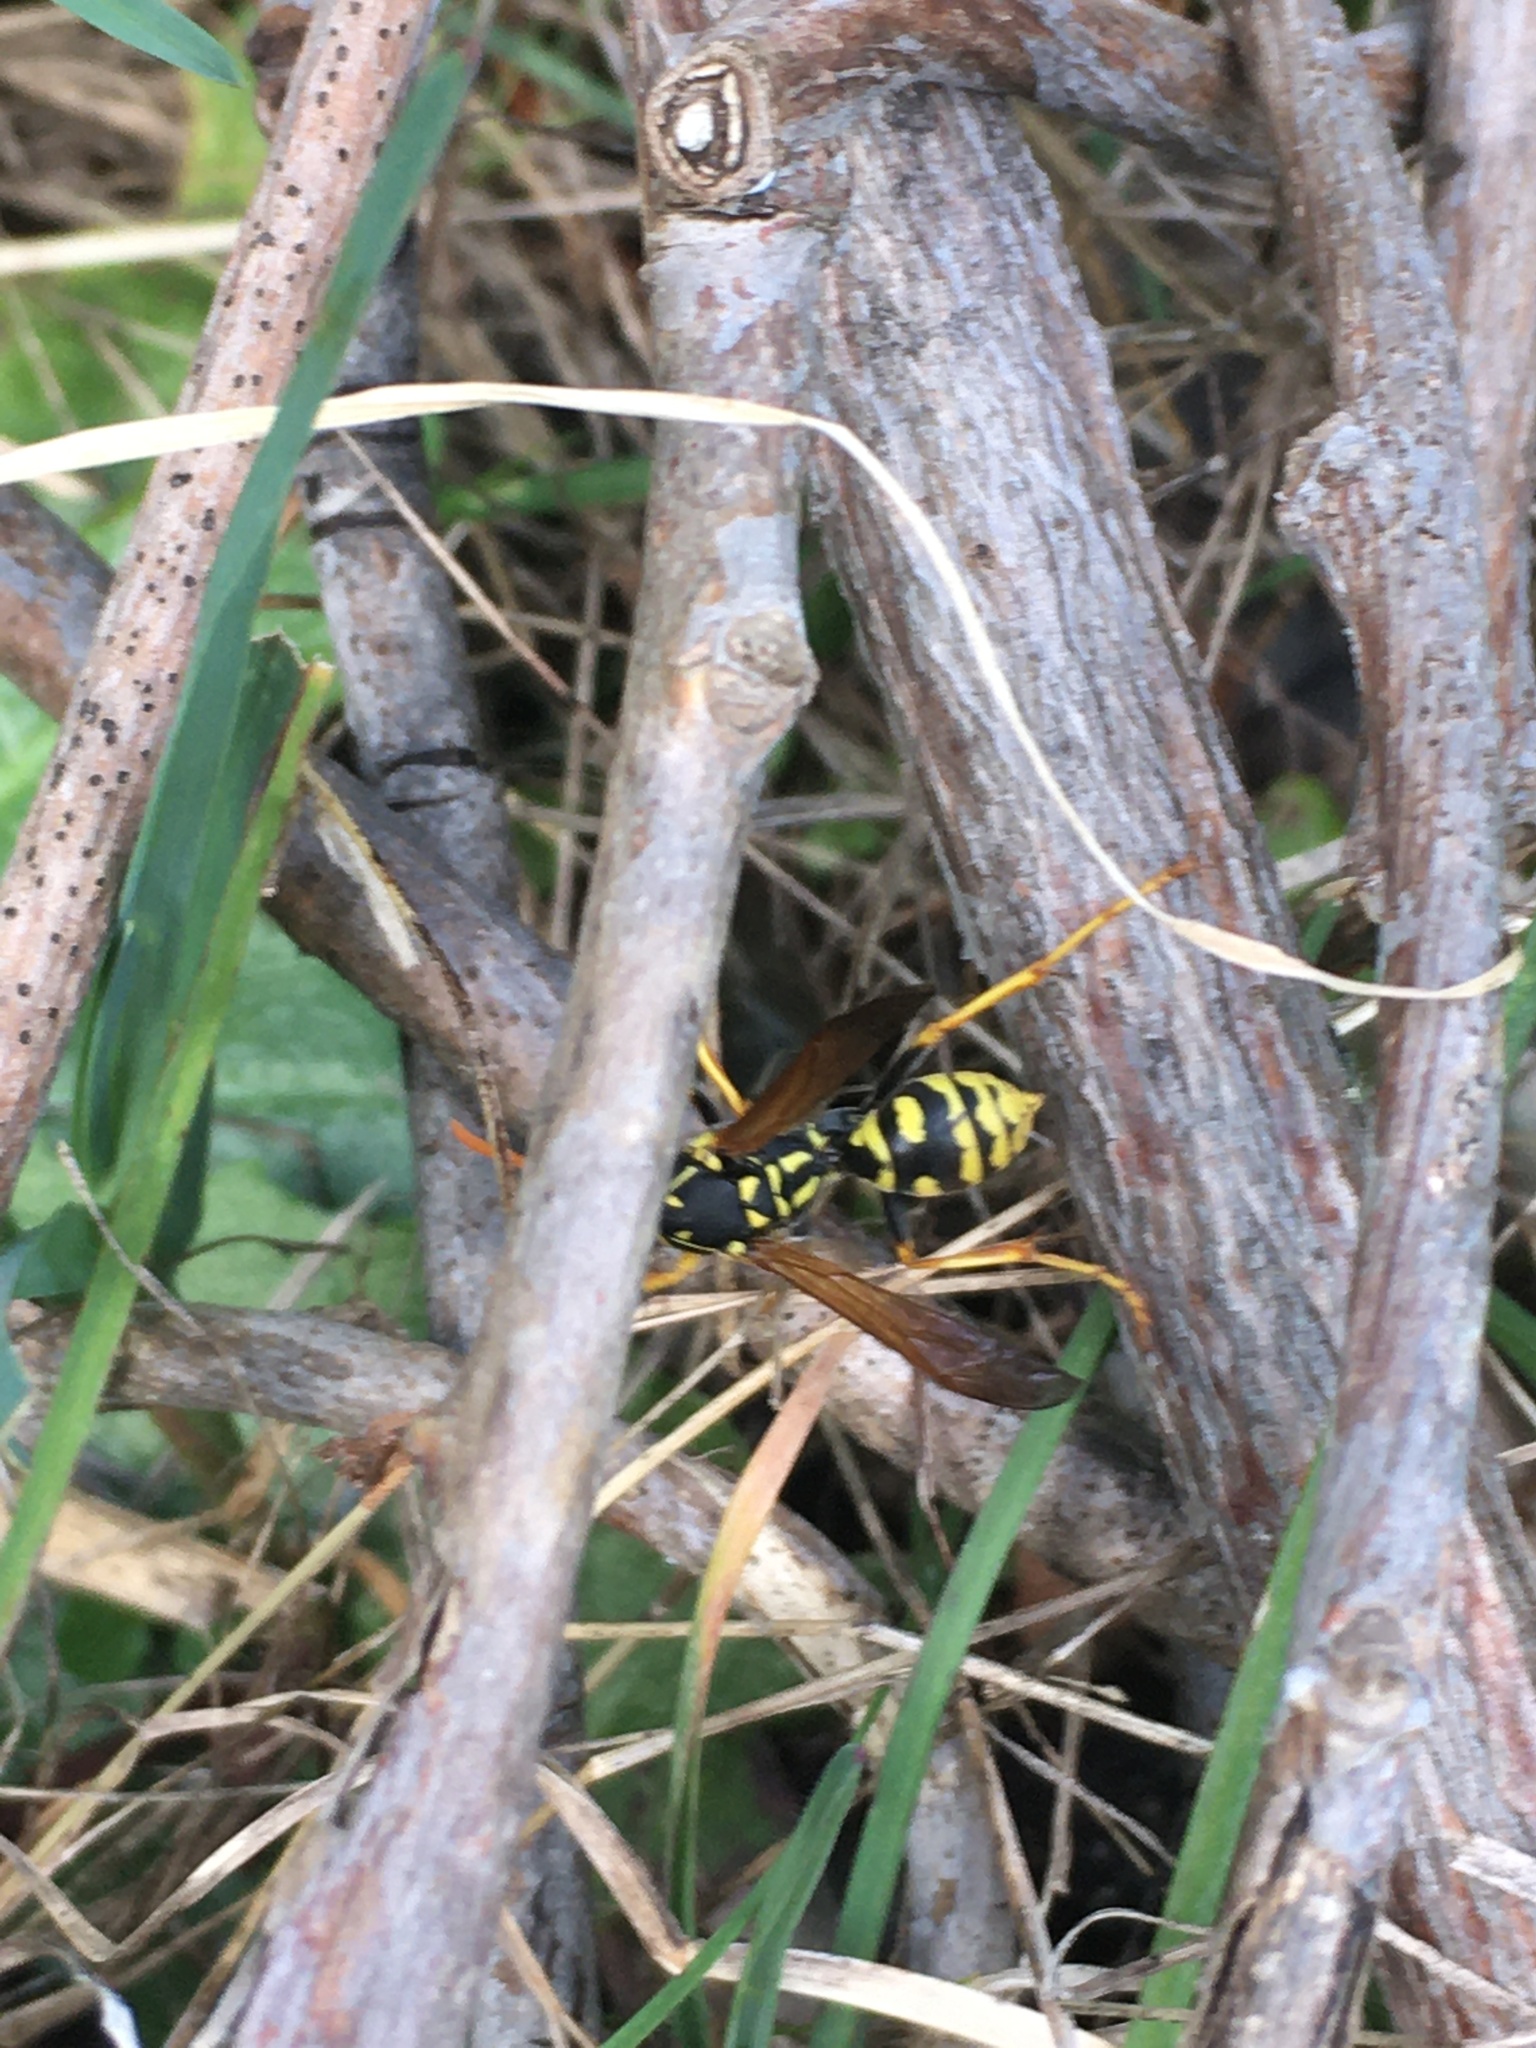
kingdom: Animalia
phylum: Arthropoda
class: Insecta
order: Hymenoptera
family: Eumenidae
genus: Polistes
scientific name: Polistes dominula
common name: Paper wasp
